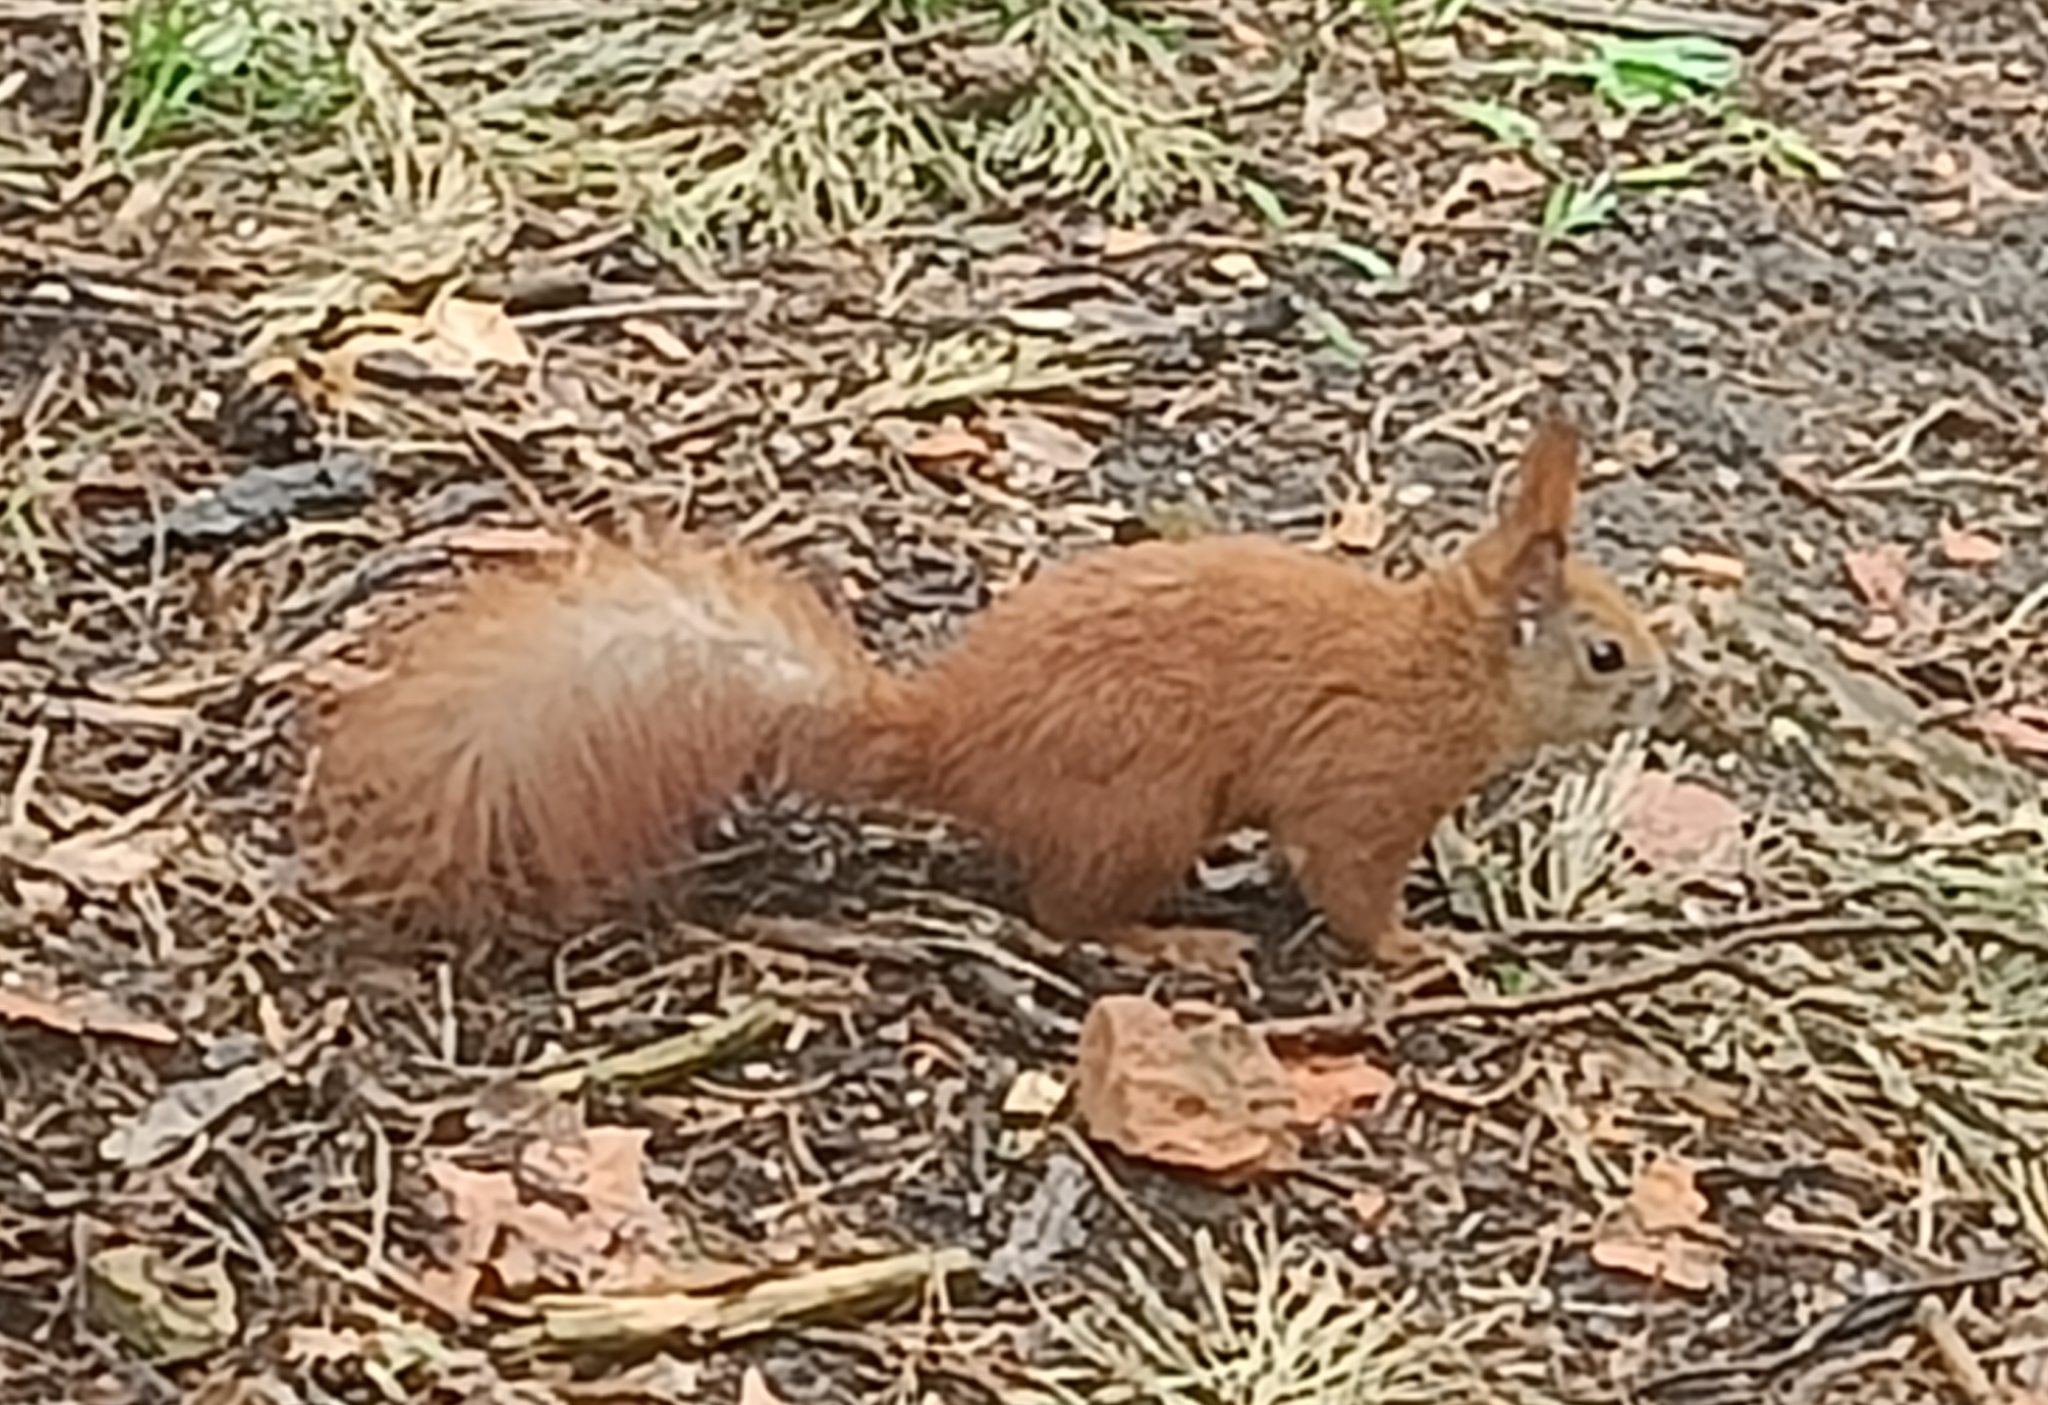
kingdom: Animalia
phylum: Chordata
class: Mammalia
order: Rodentia
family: Sciuridae
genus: Sciurus
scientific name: Sciurus vulgaris
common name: Eurasian red squirrel
